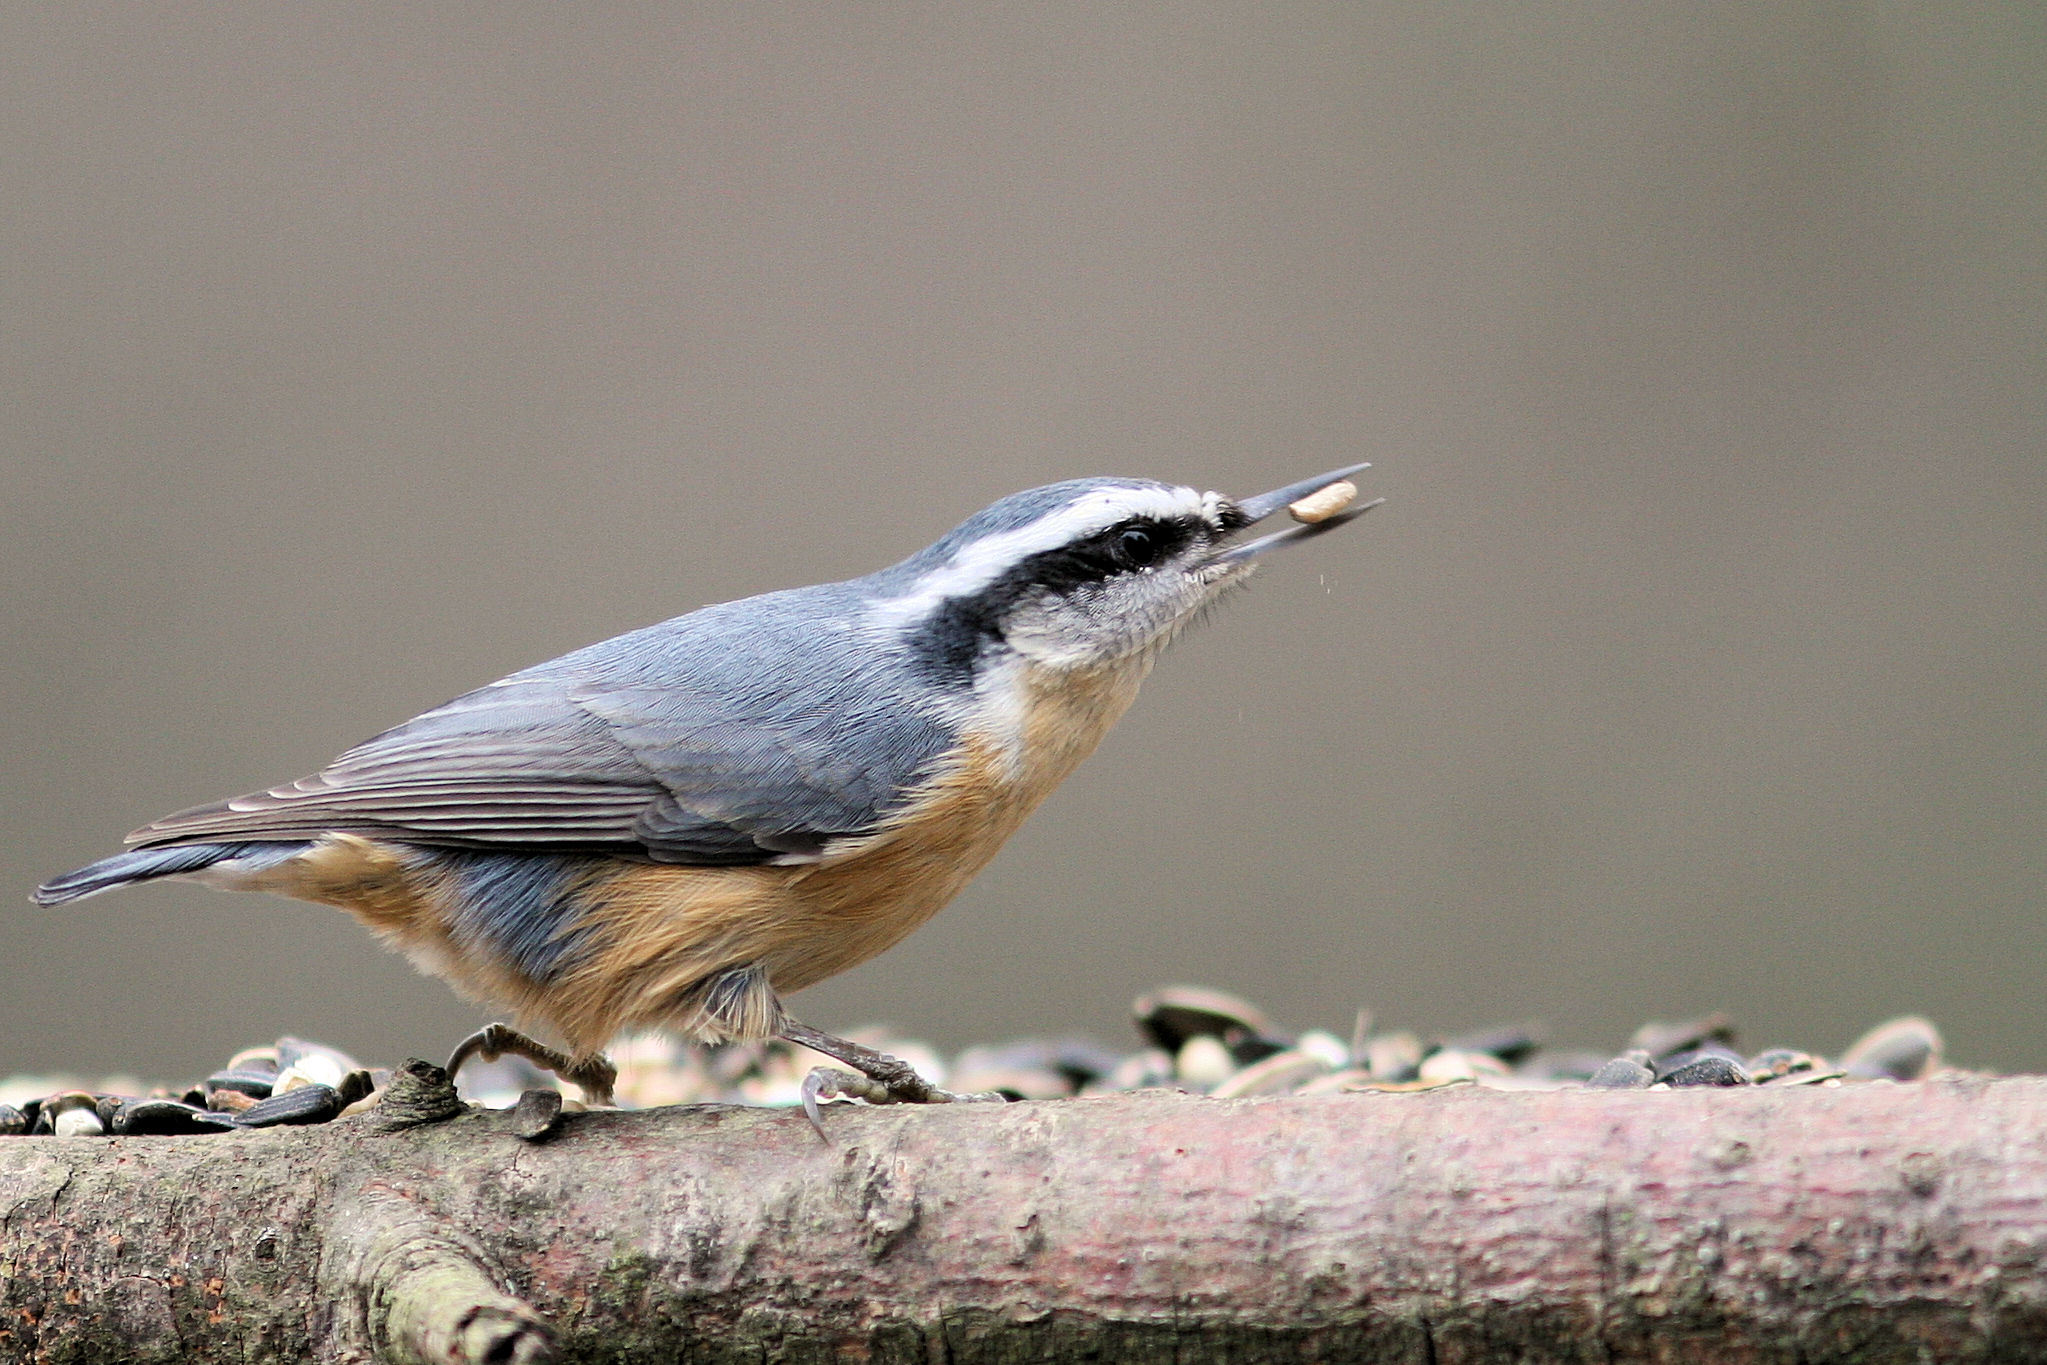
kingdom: Animalia
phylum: Chordata
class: Aves
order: Passeriformes
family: Sittidae
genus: Sitta
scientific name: Sitta canadensis
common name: Red-breasted nuthatch
